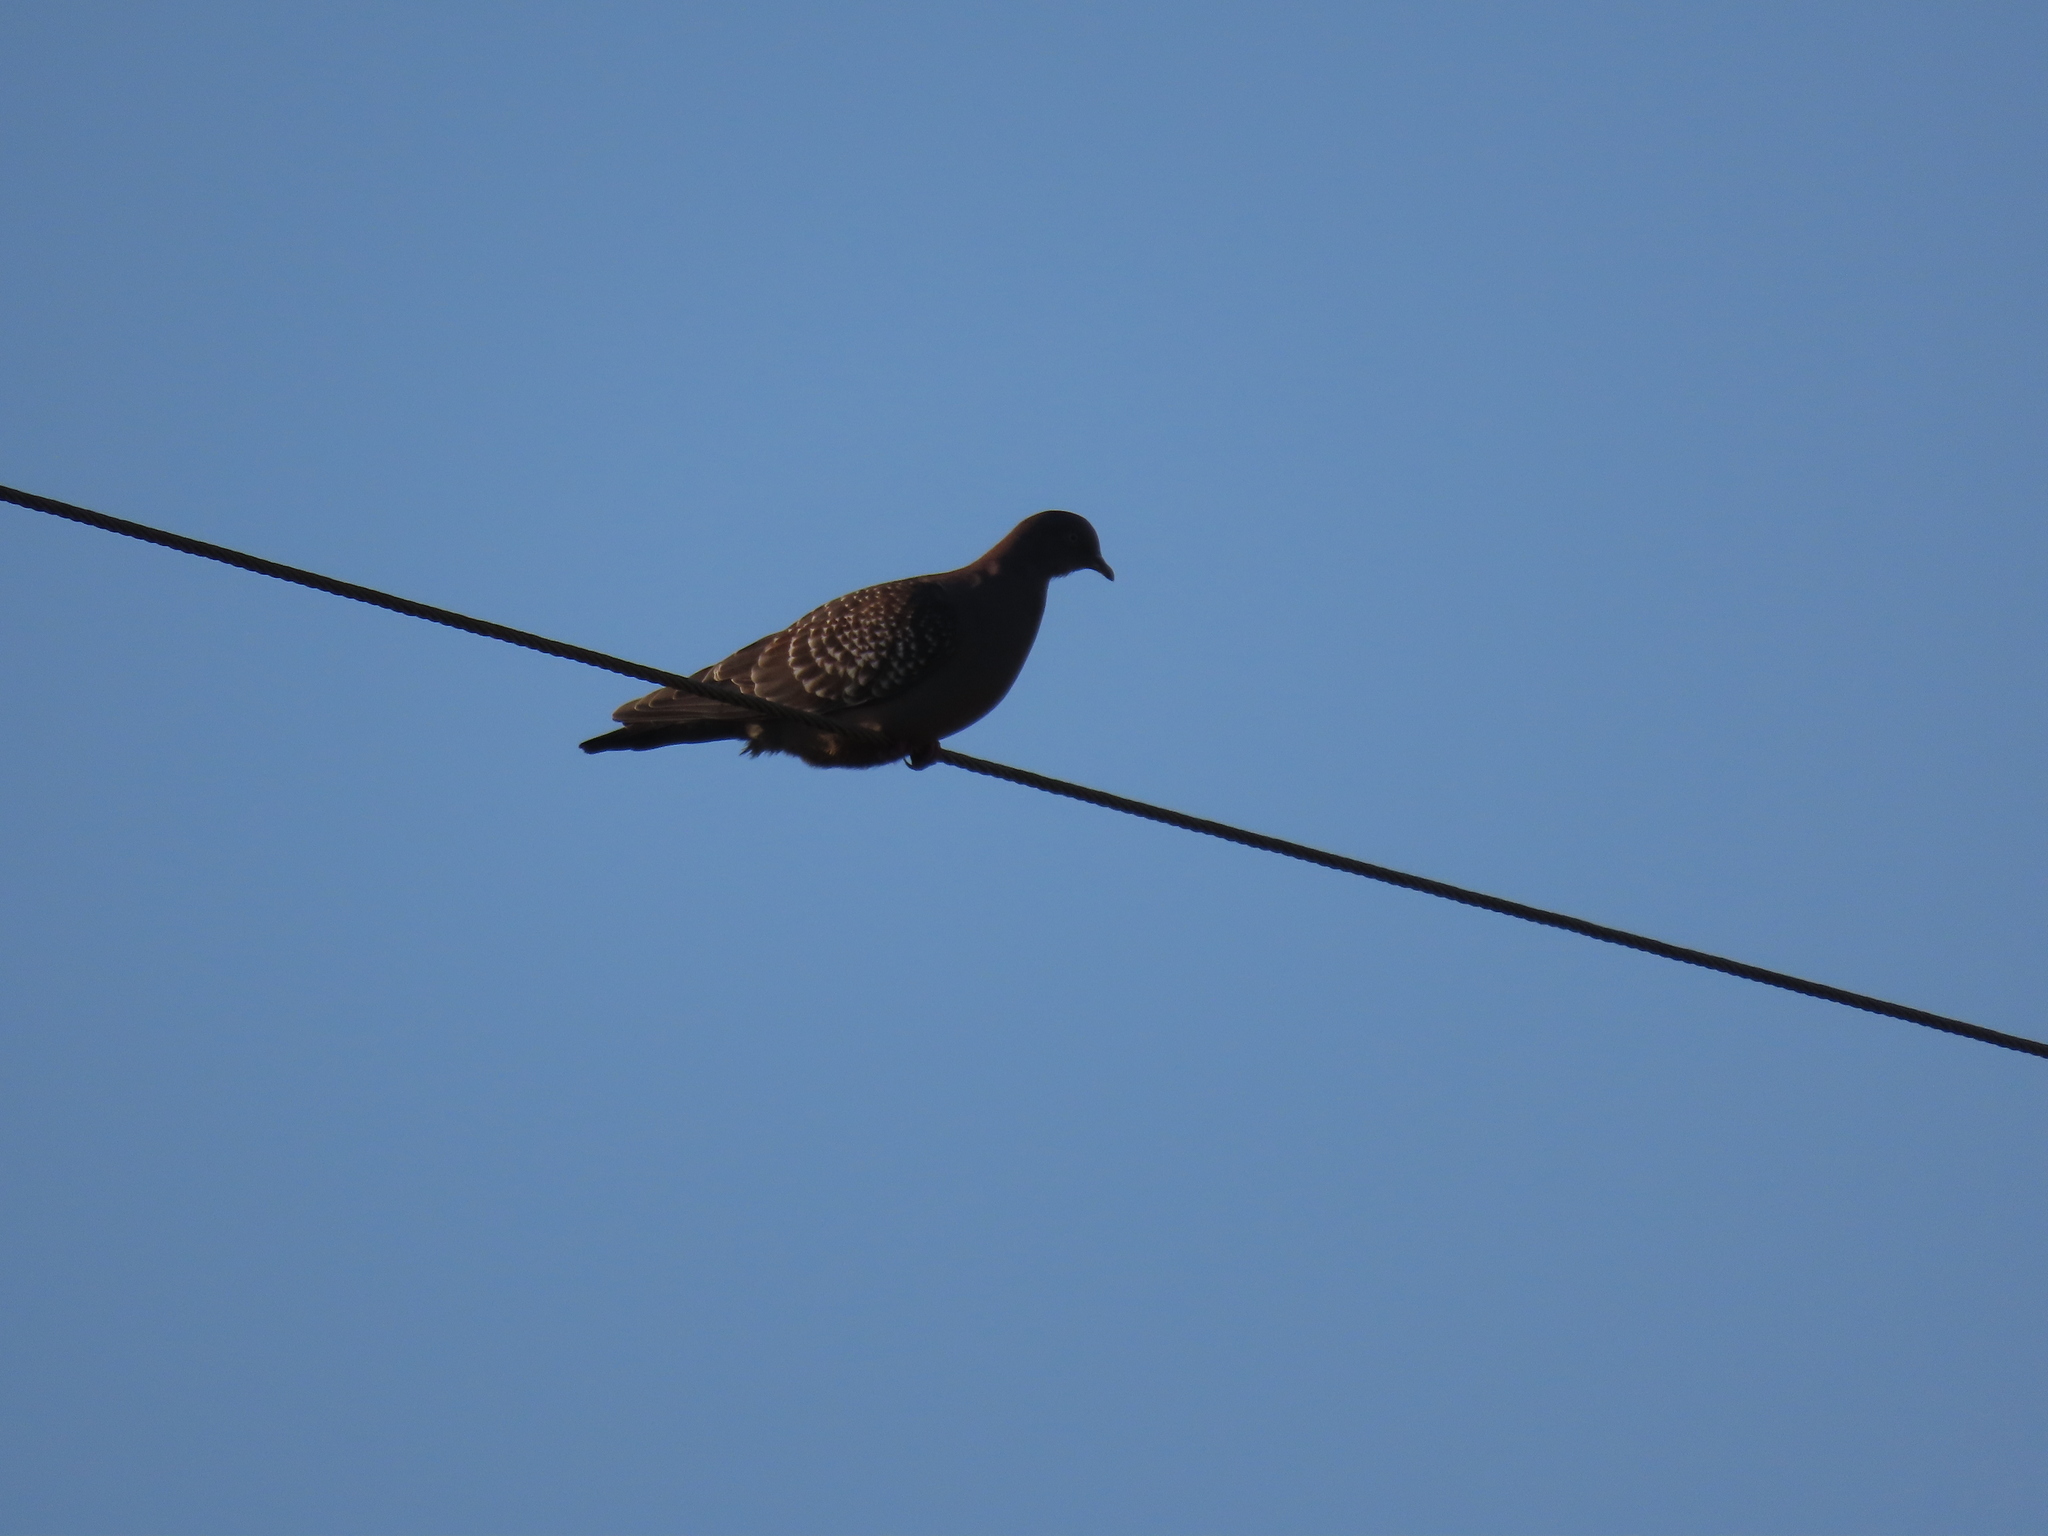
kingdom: Animalia
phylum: Chordata
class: Aves
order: Columbiformes
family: Columbidae
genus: Patagioenas
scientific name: Patagioenas maculosa
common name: Spot-winged pigeon
